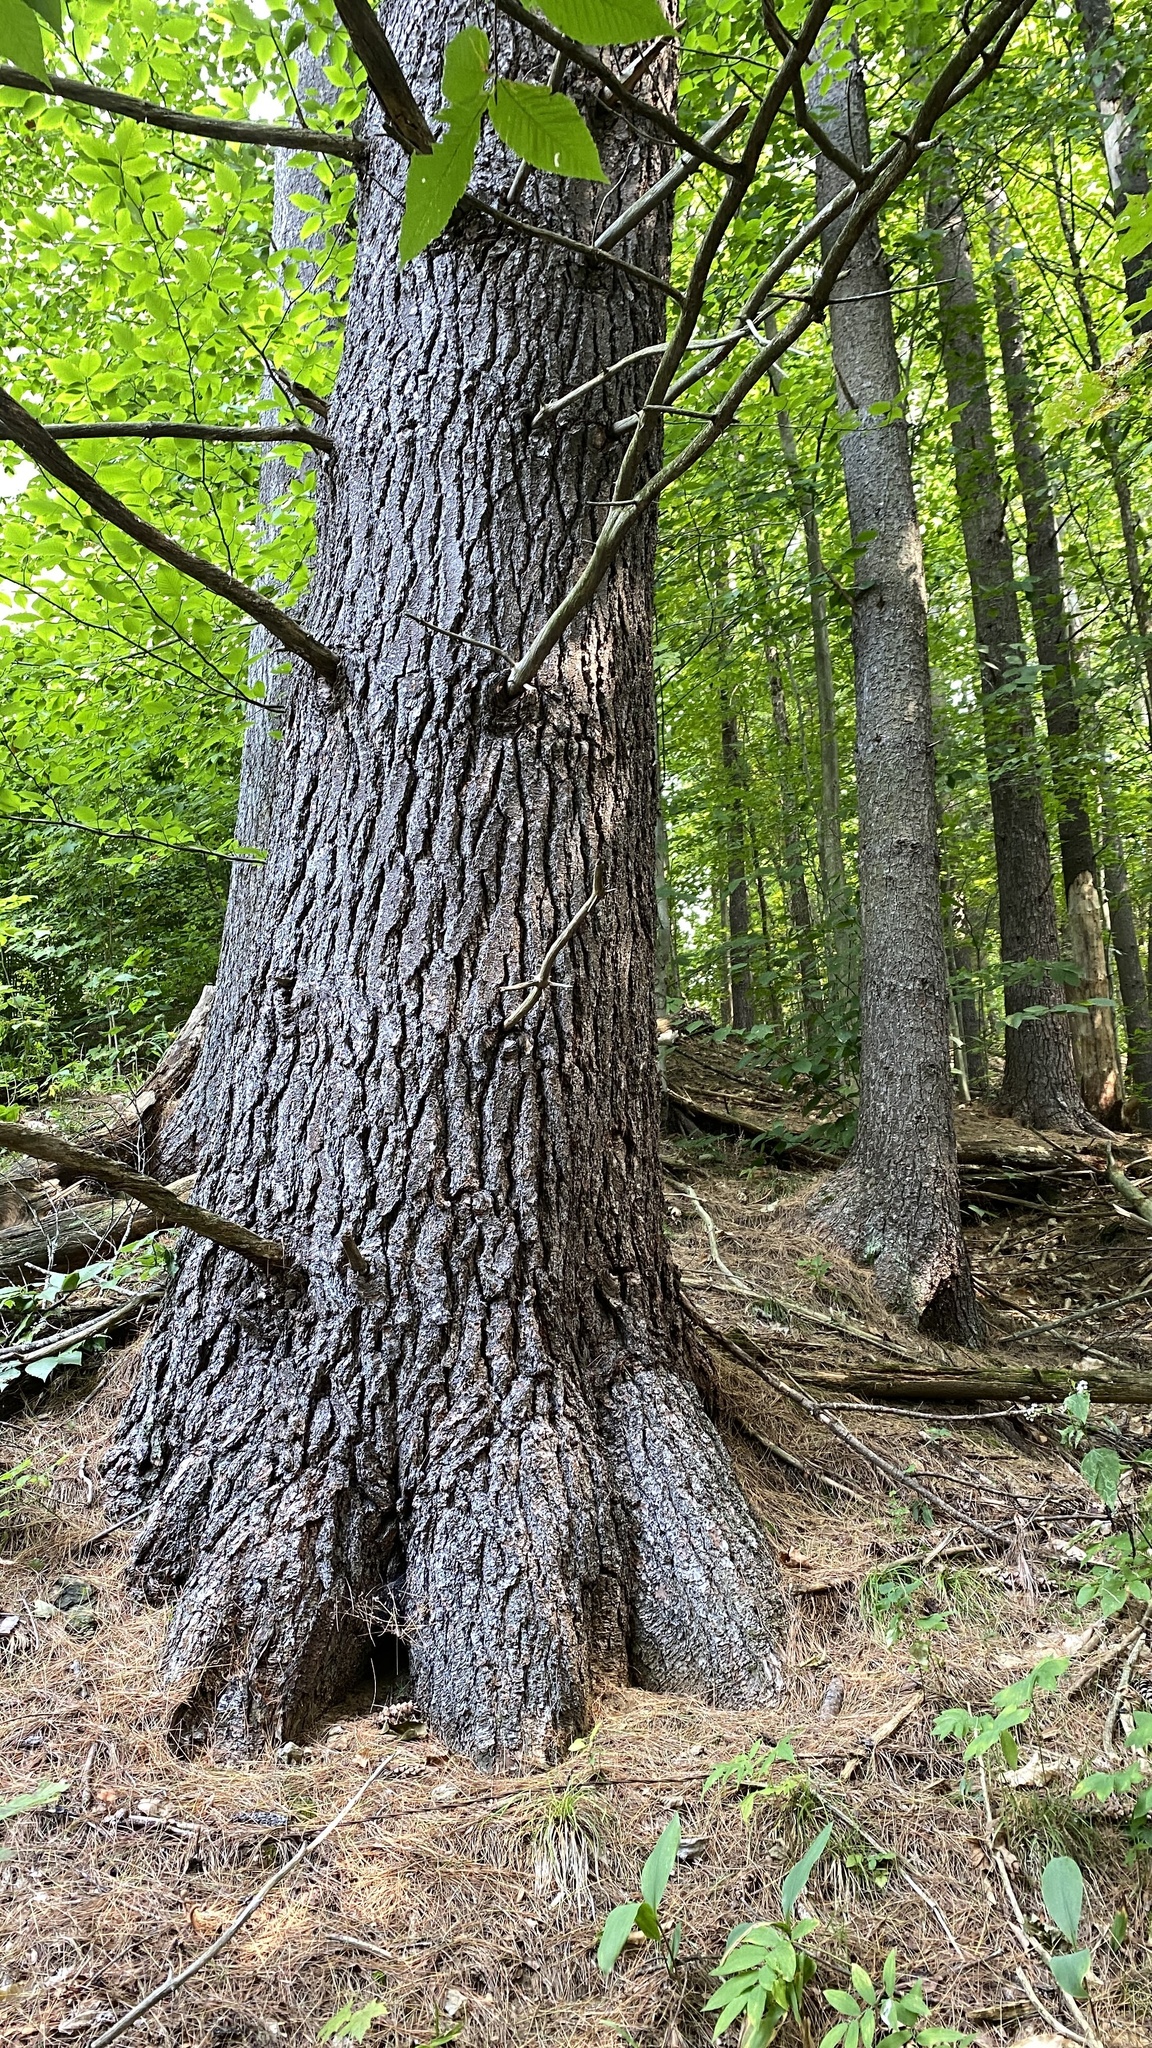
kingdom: Plantae
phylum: Tracheophyta
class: Pinopsida
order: Pinales
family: Pinaceae
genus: Pinus
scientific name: Pinus strobus
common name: Weymouth pine
